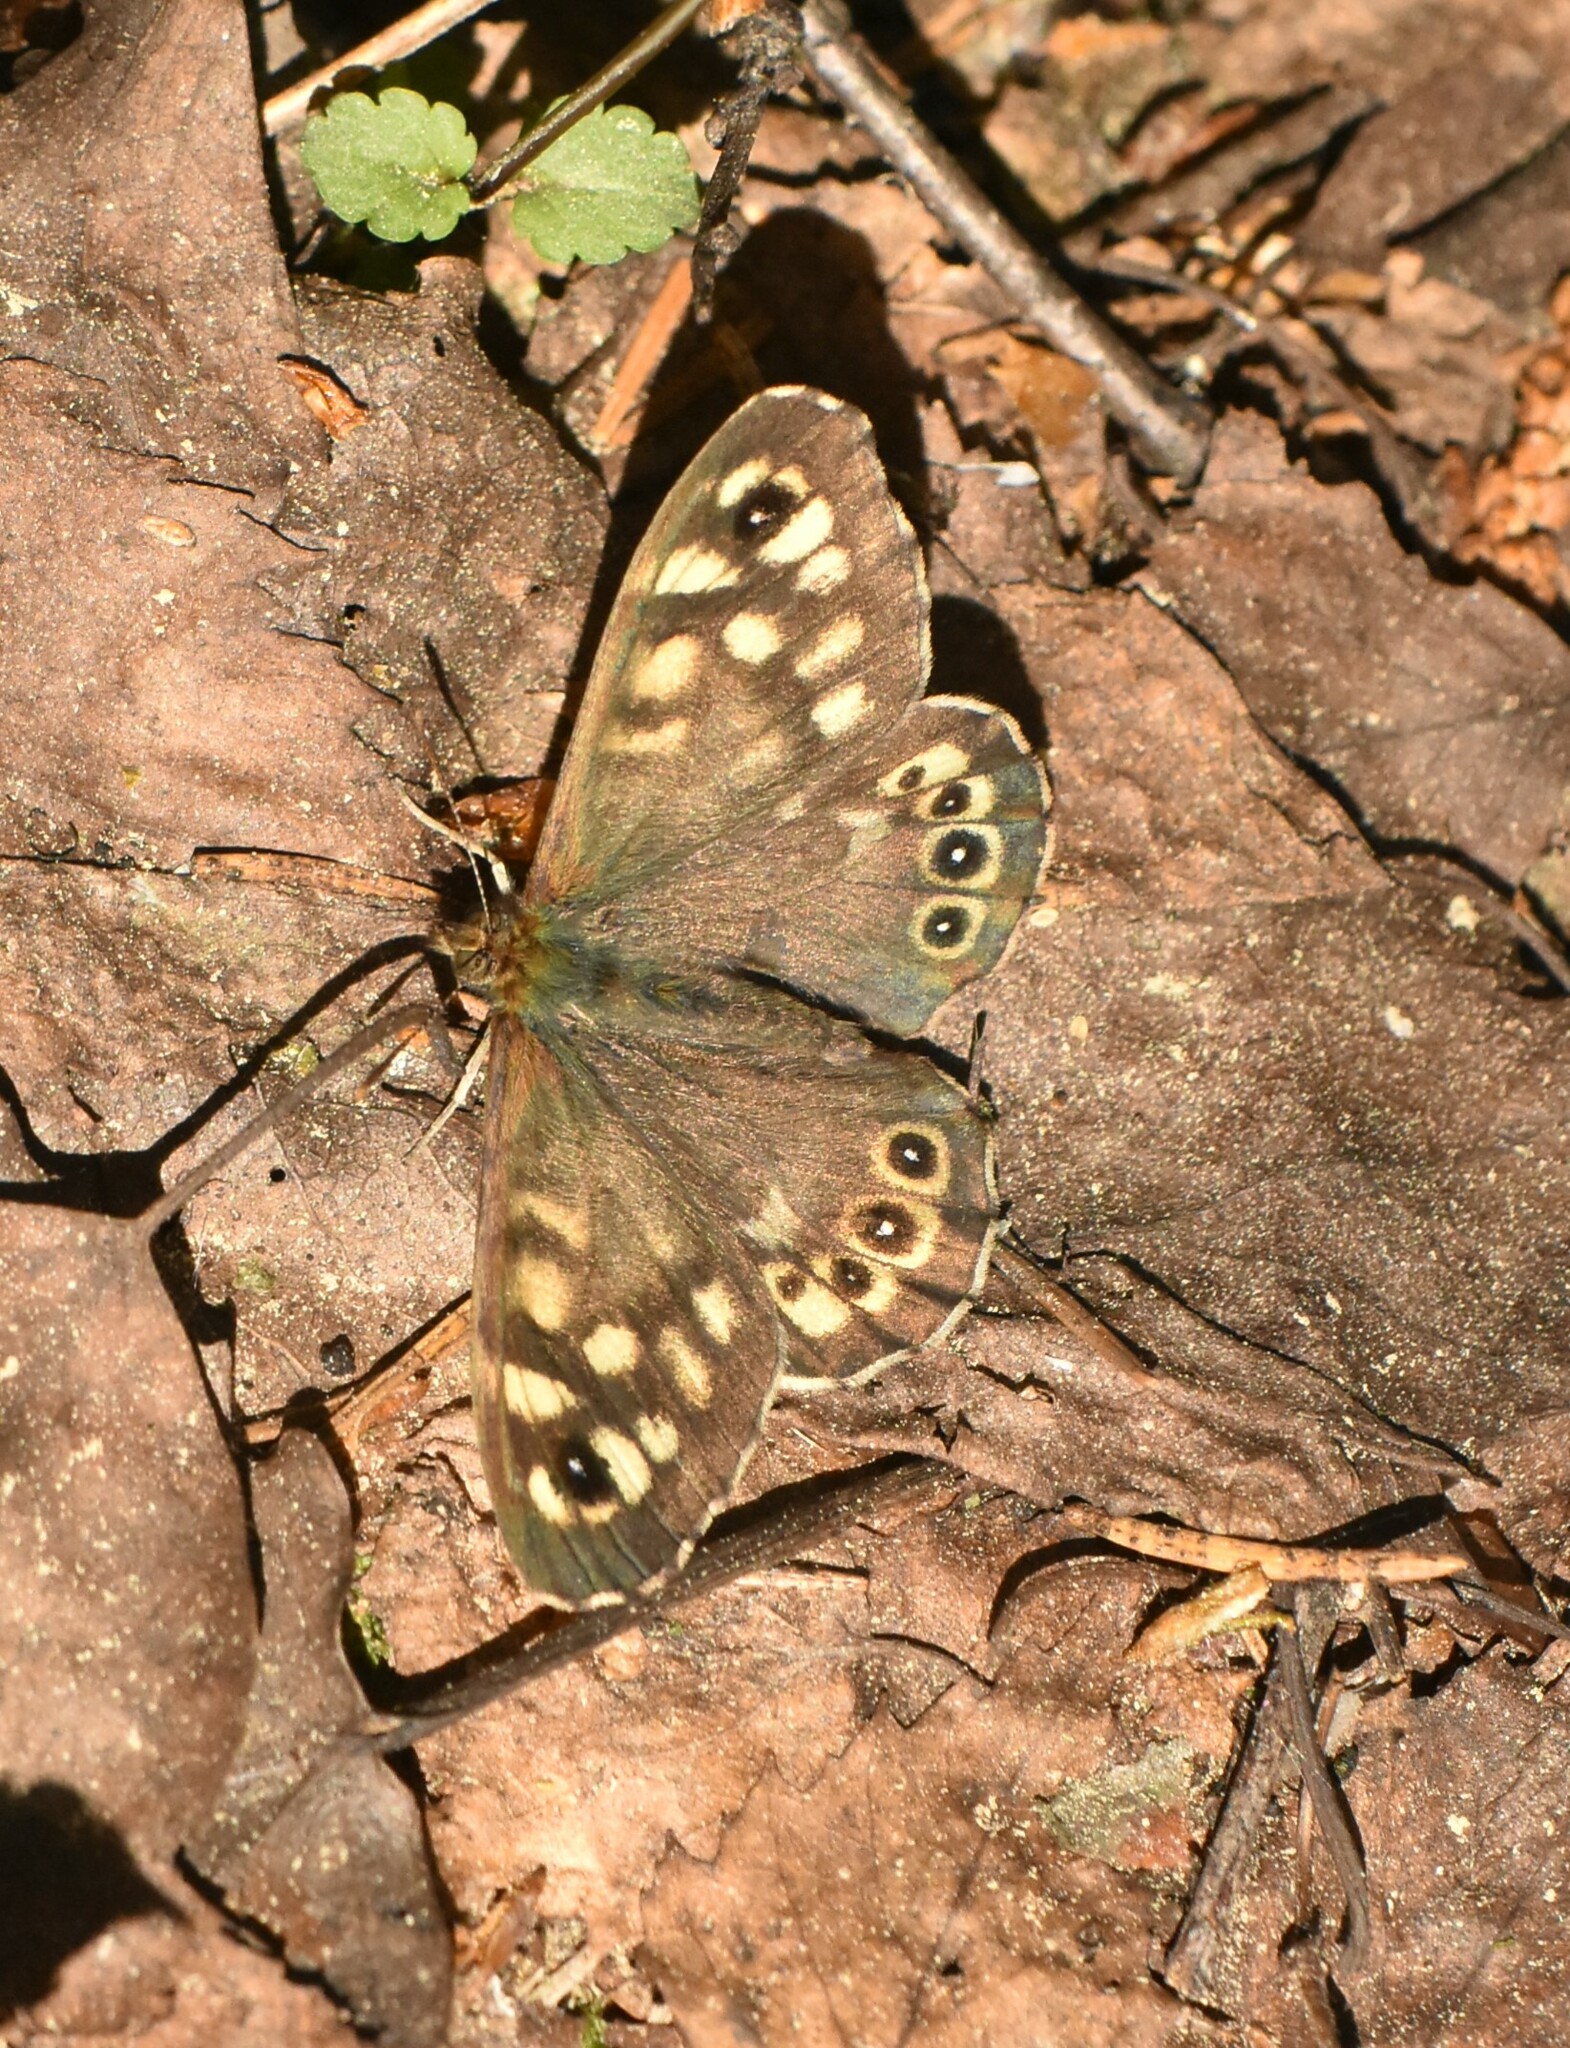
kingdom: Animalia
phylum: Arthropoda
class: Insecta
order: Lepidoptera
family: Nymphalidae
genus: Pararge
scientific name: Pararge aegeria
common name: Speckled wood
